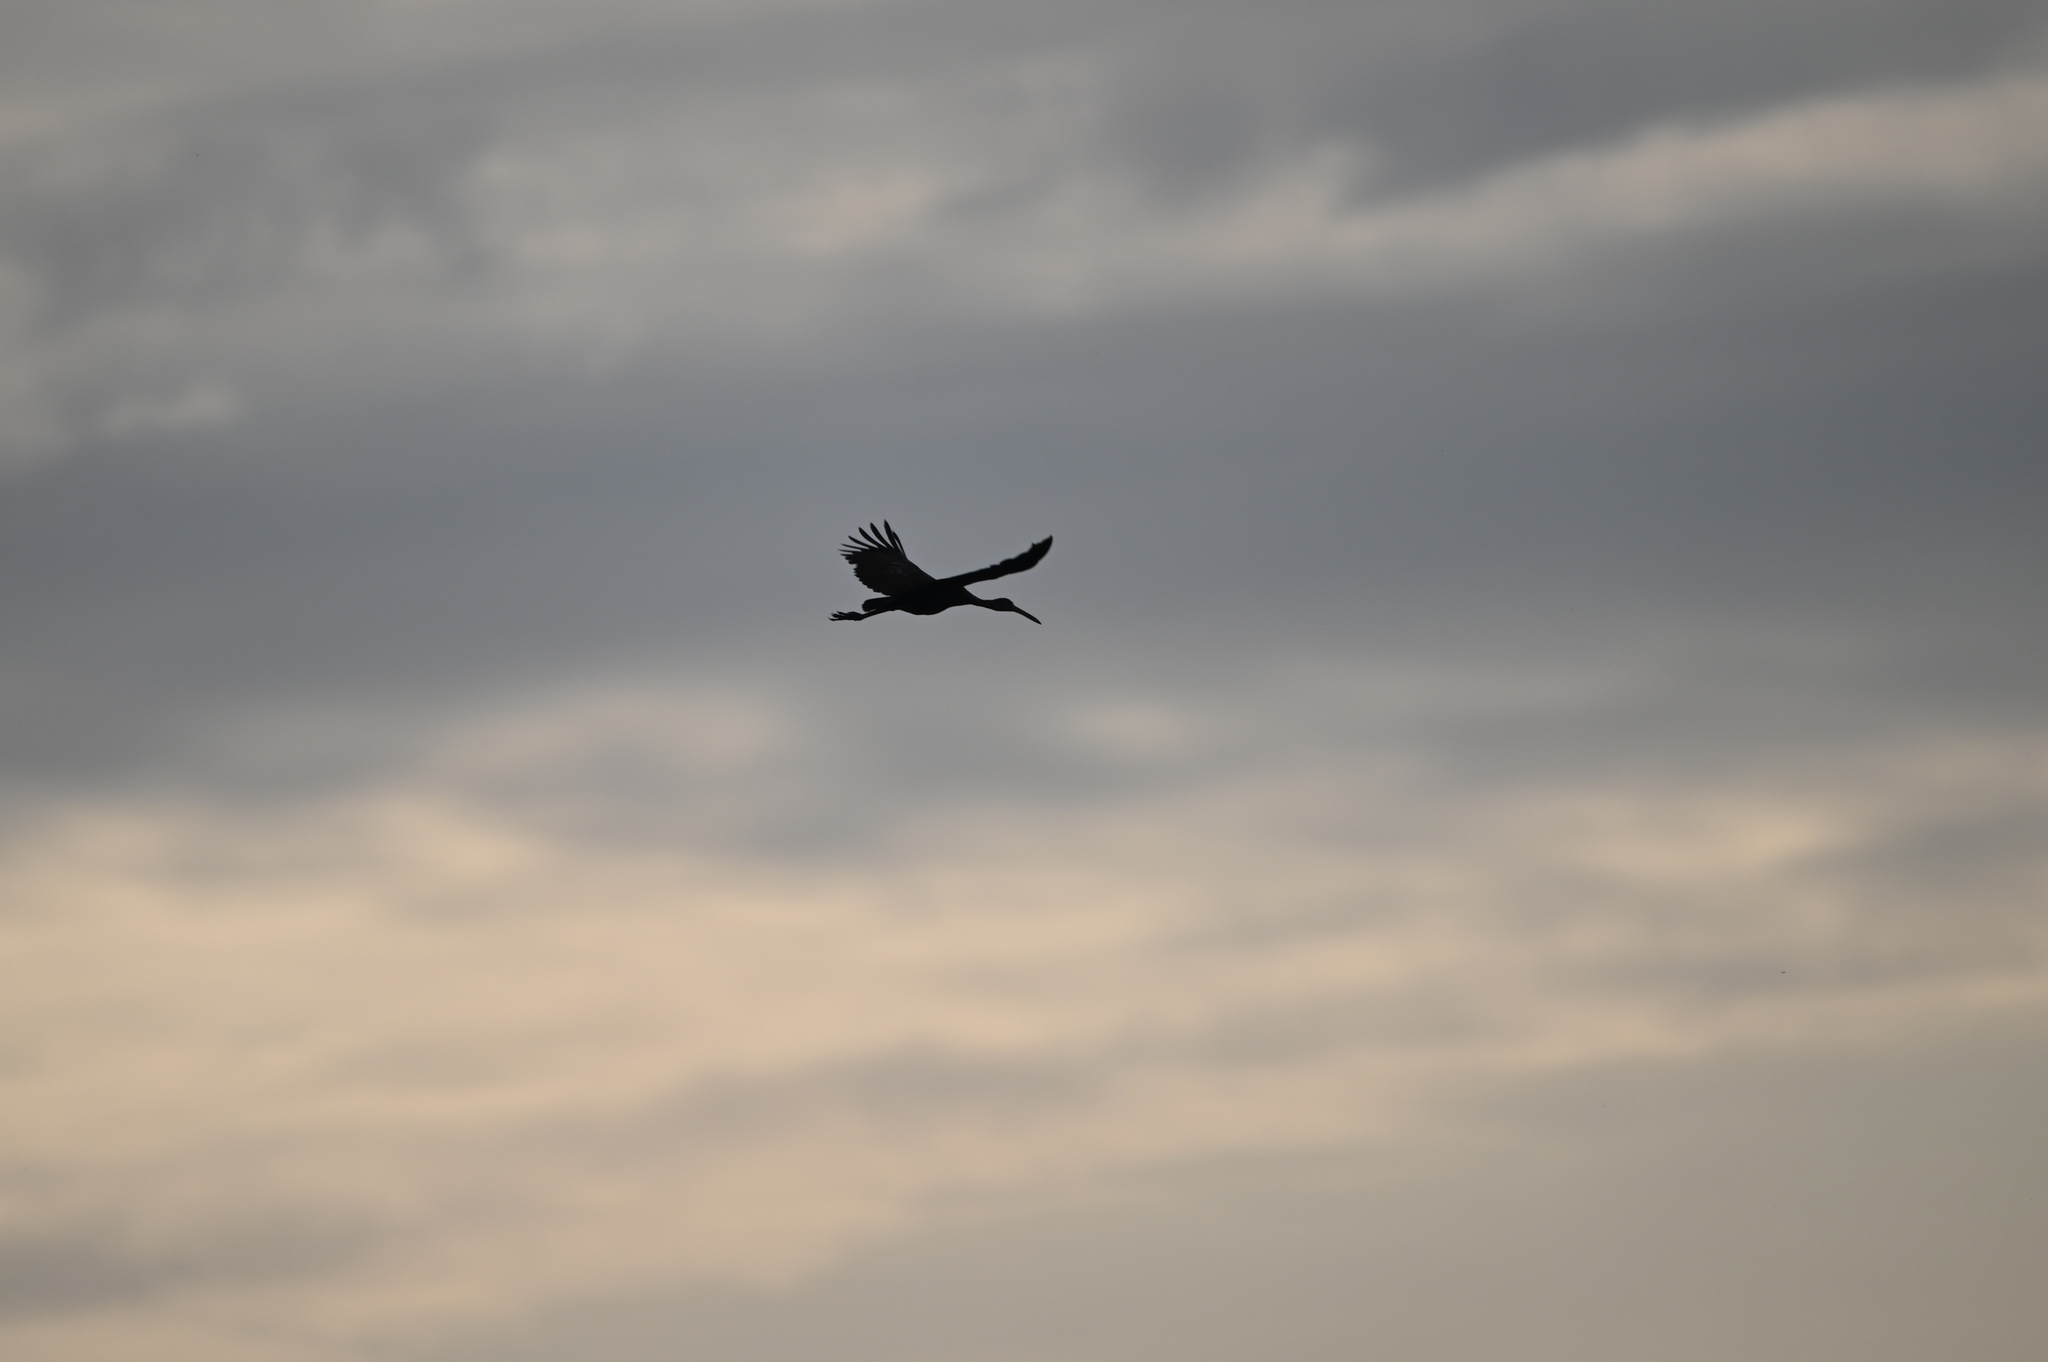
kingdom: Animalia
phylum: Chordata
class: Aves
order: Gruiformes
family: Aramidae
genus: Aramus
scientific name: Aramus guarauna
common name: Limpkin
